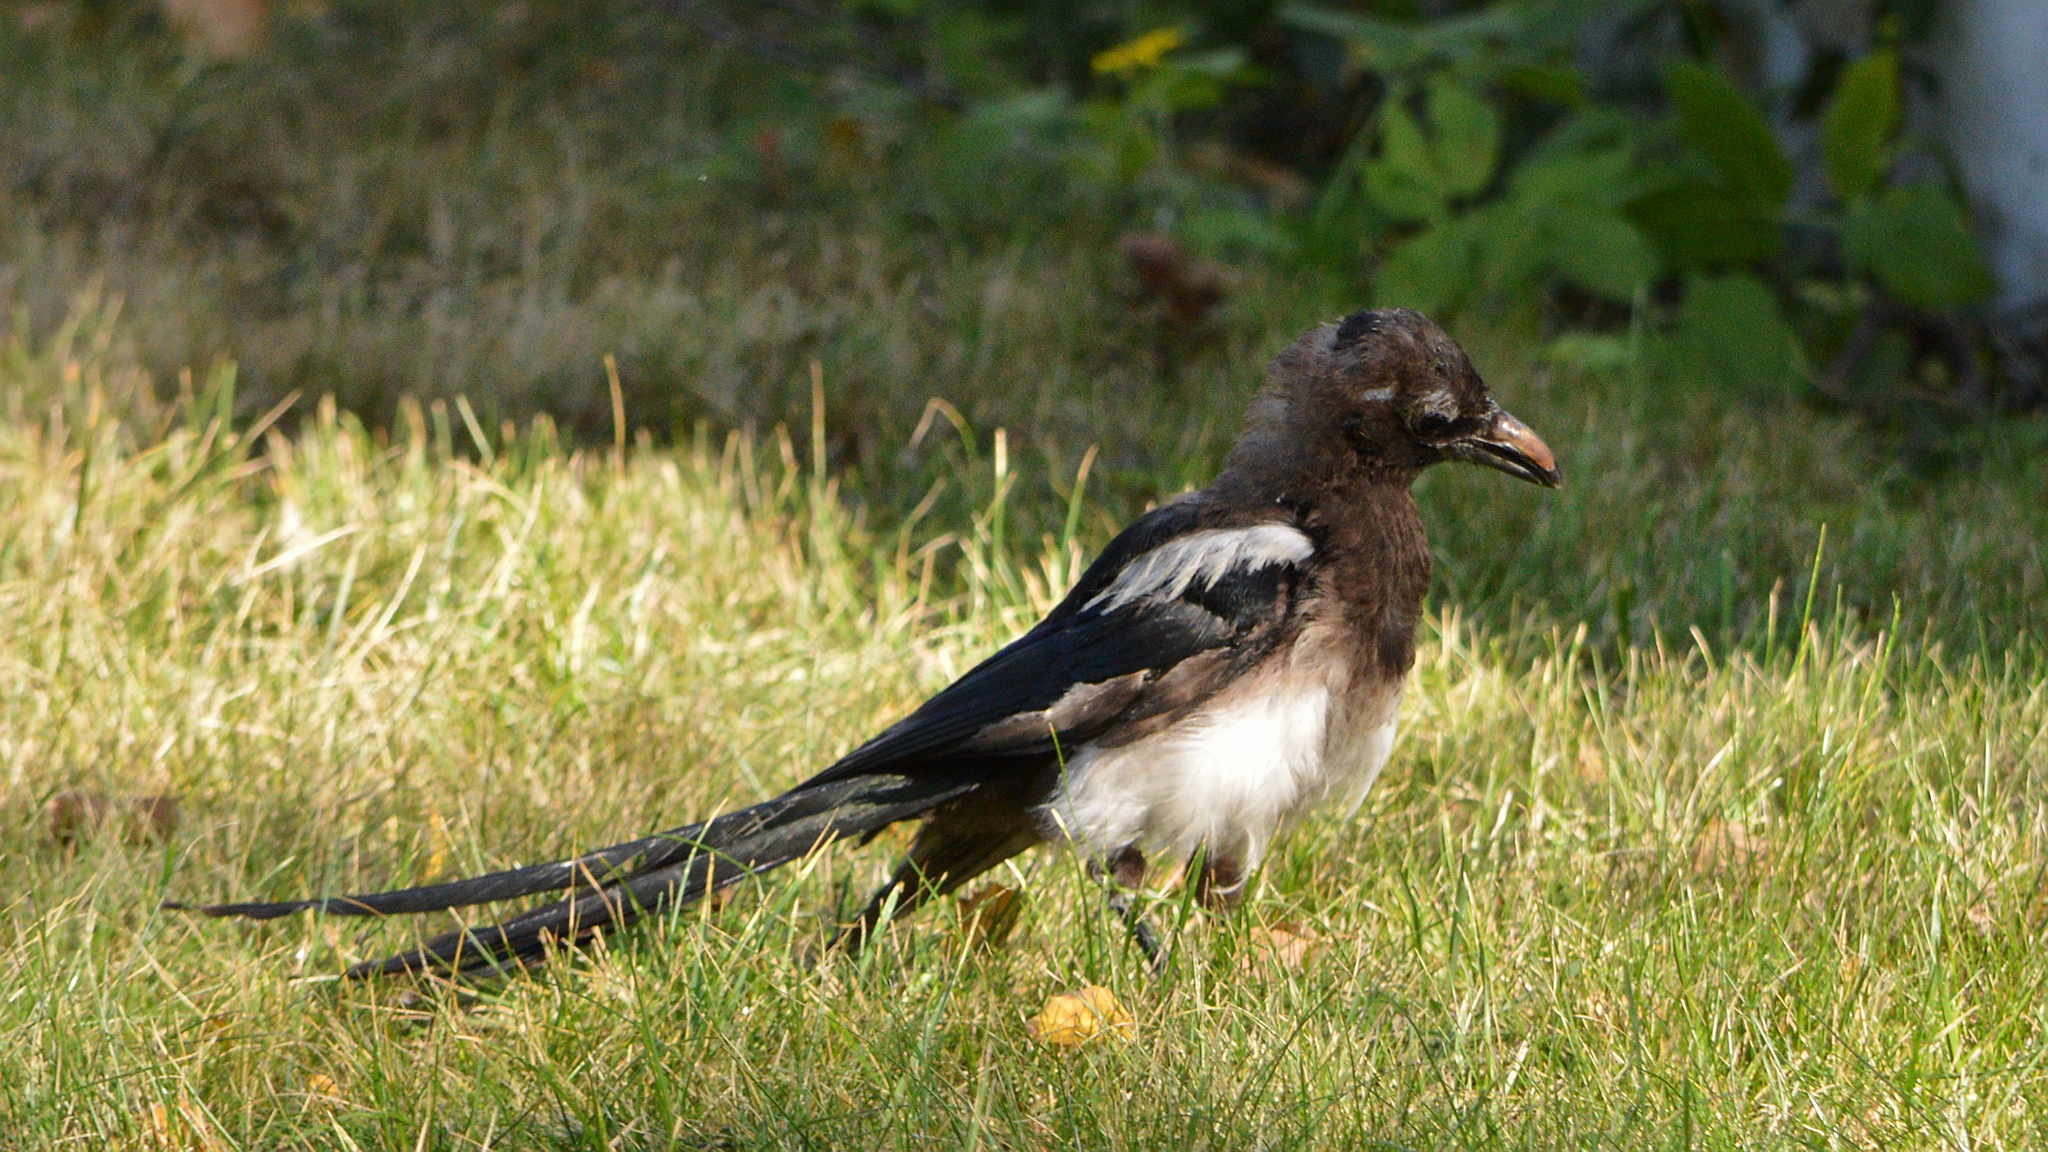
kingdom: Animalia
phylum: Chordata
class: Aves
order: Passeriformes
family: Corvidae
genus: Pica
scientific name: Pica pica
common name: Eurasian magpie
